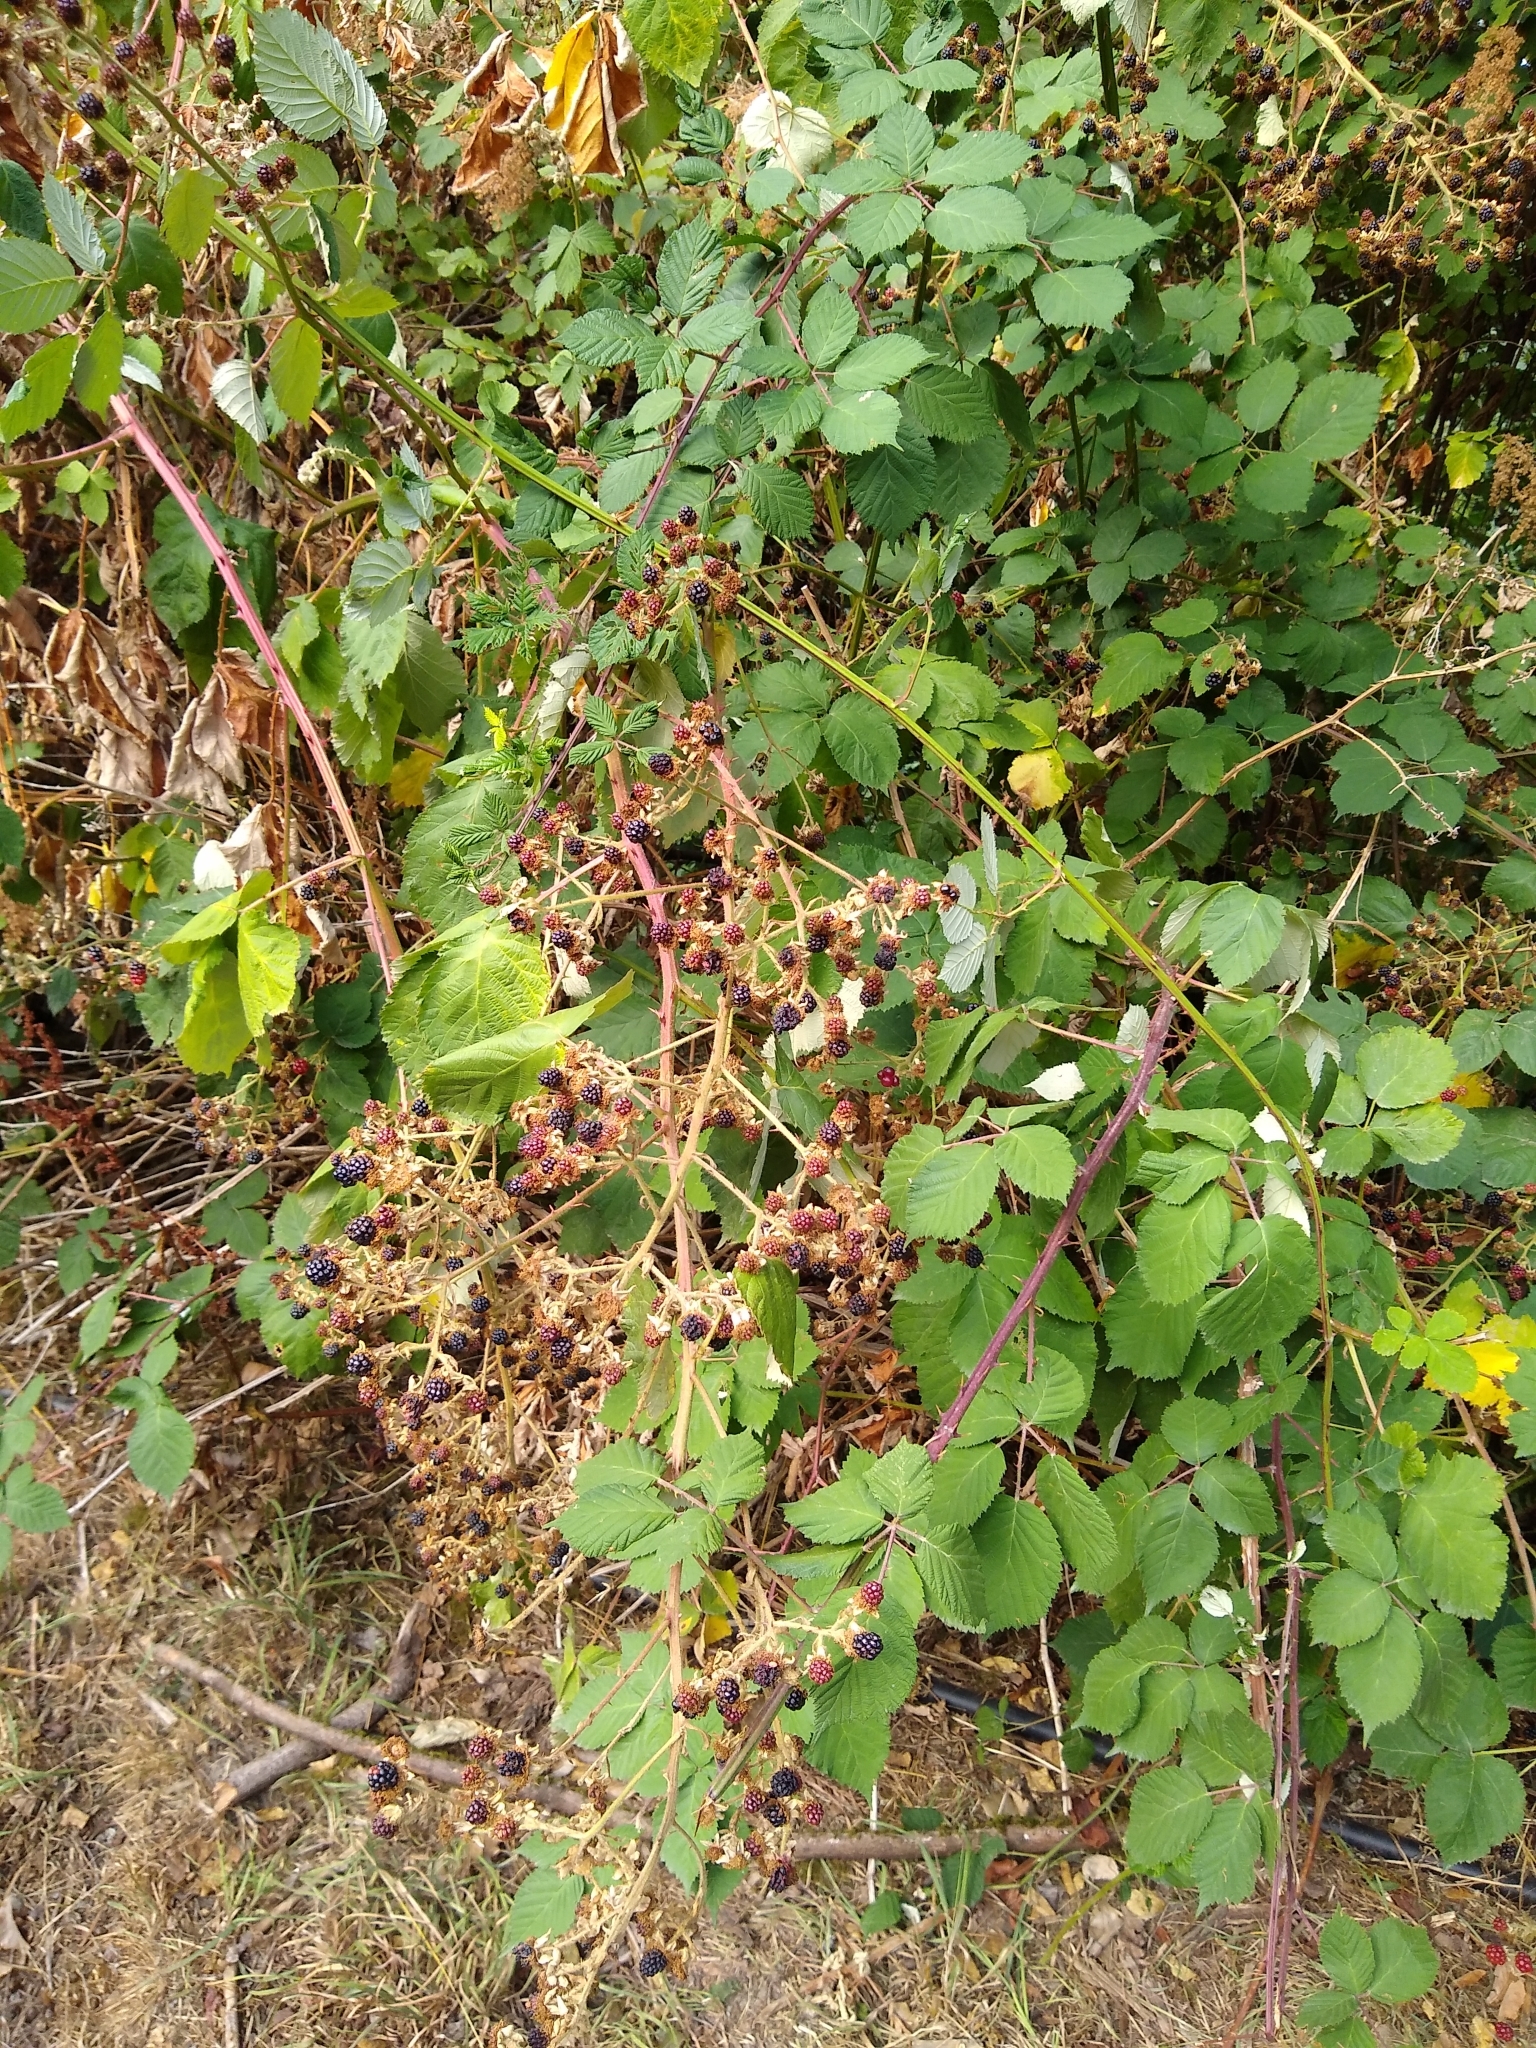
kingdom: Plantae
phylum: Tracheophyta
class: Magnoliopsida
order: Rosales
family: Rosaceae
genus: Rubus
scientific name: Rubus bifrons
